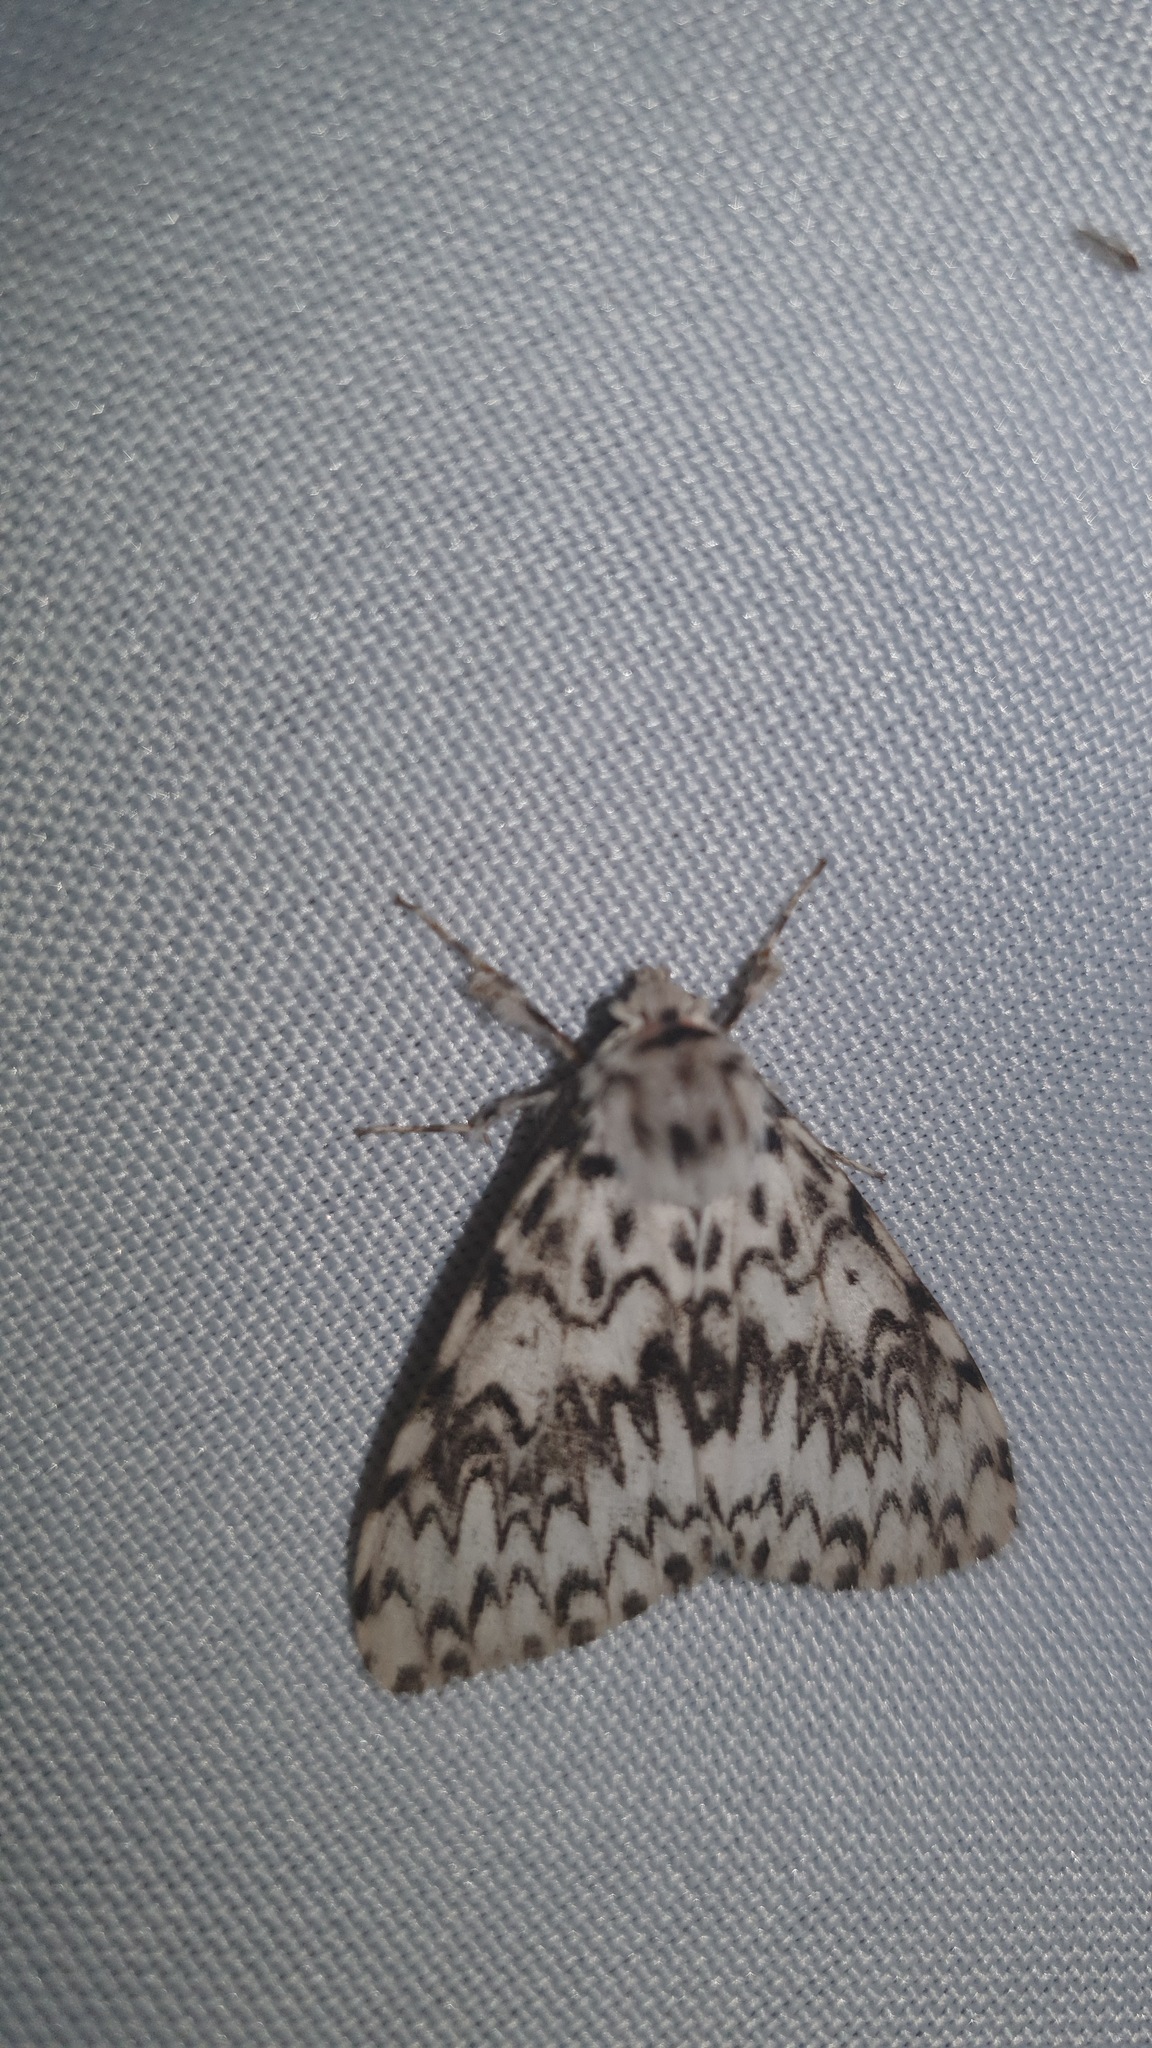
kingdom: Animalia
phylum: Arthropoda
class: Insecta
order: Lepidoptera
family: Erebidae
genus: Lymantria
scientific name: Lymantria monacha
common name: Black arches
